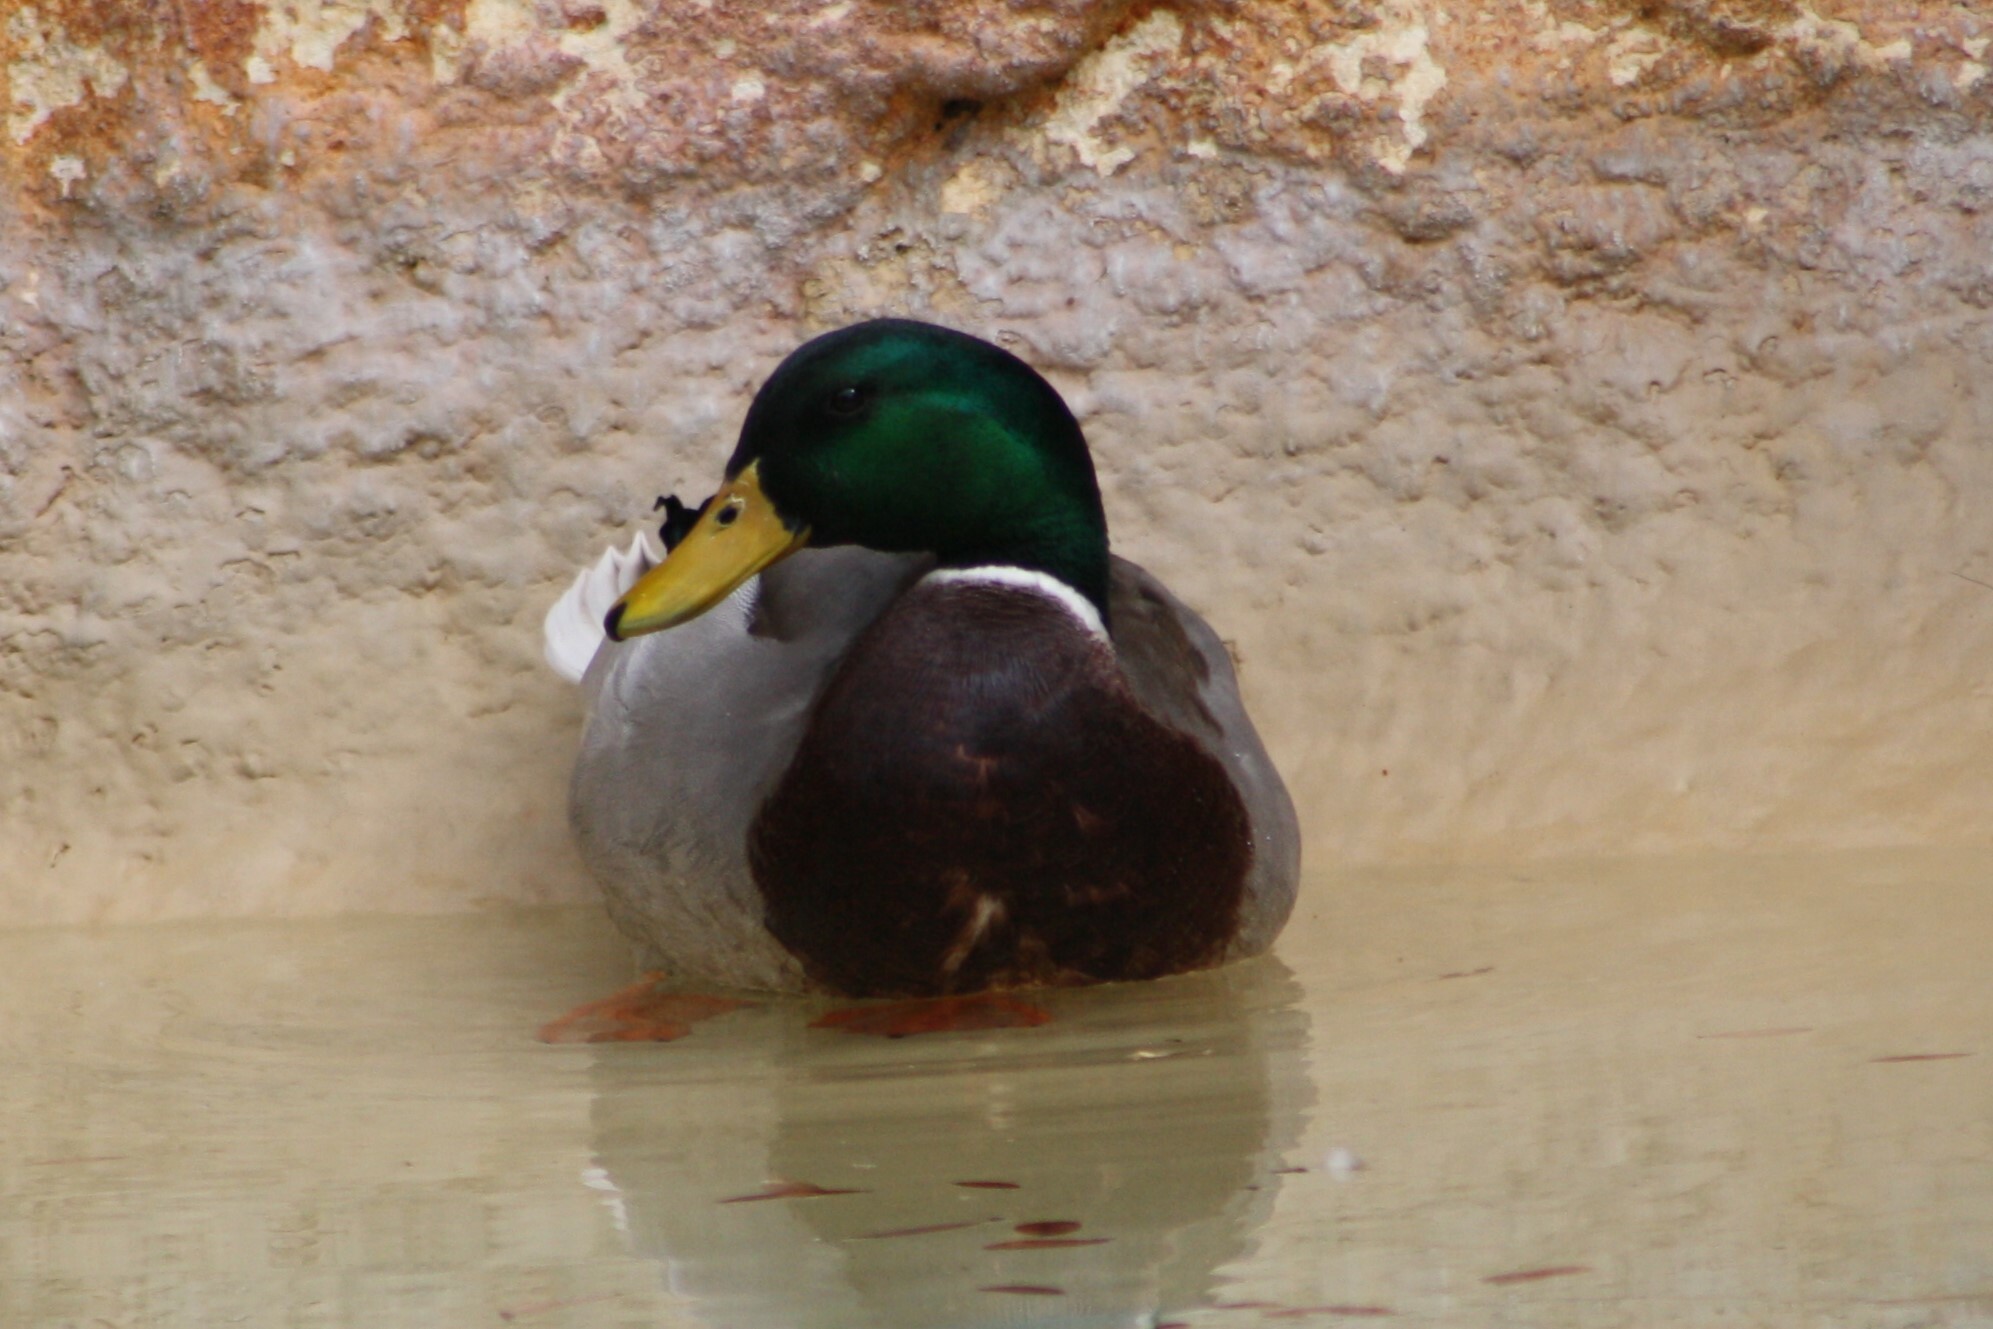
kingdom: Animalia
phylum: Chordata
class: Aves
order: Anseriformes
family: Anatidae
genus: Anas
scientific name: Anas platyrhynchos
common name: Mallard
